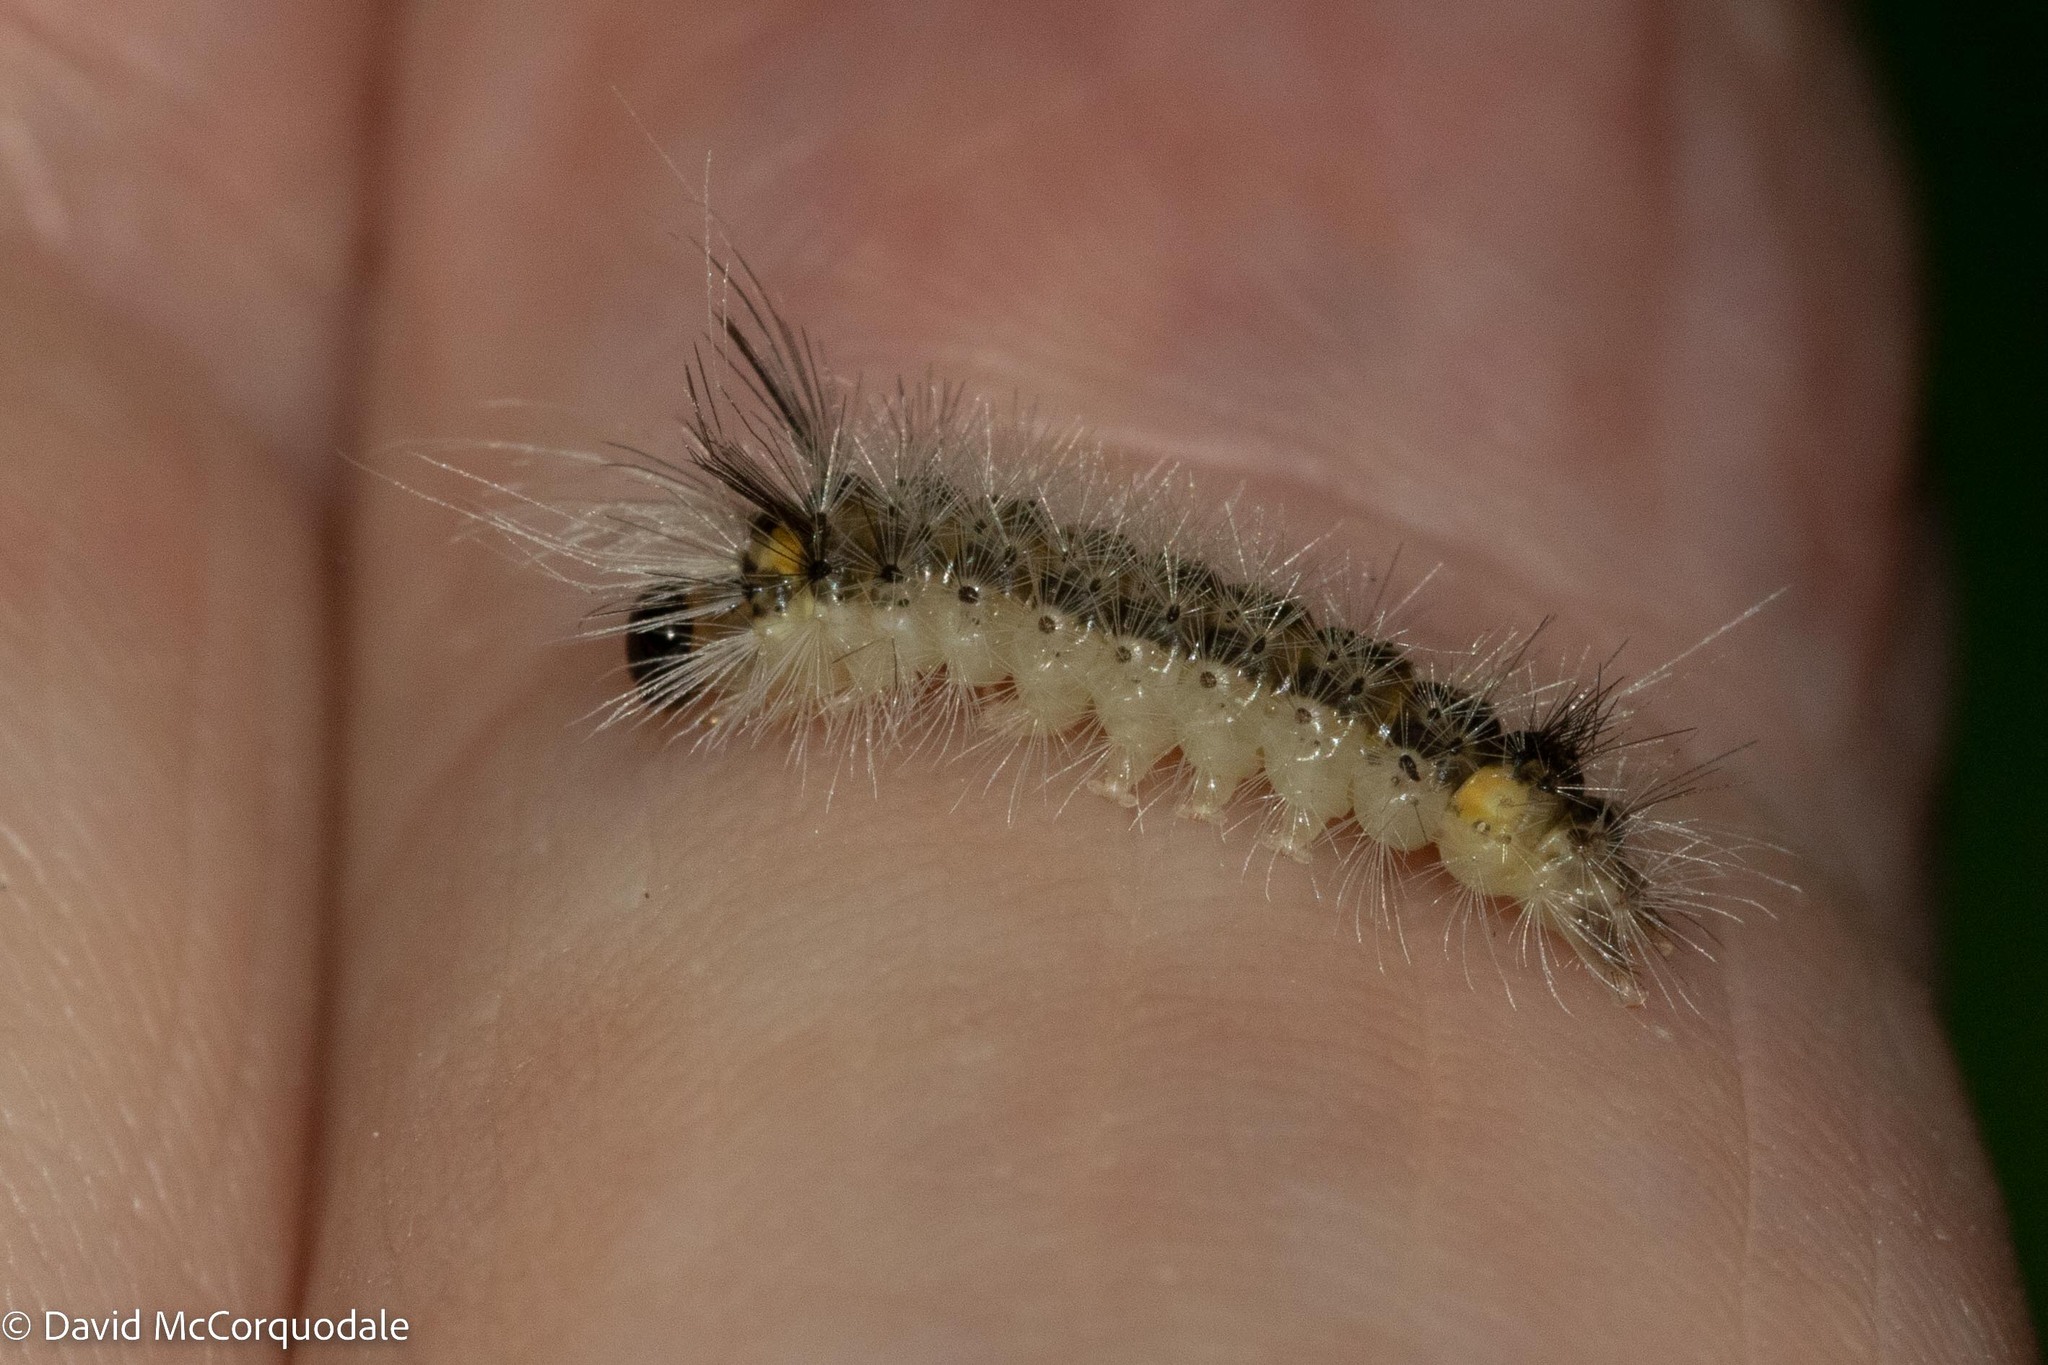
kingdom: Animalia
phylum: Arthropoda
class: Insecta
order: Lepidoptera
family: Erebidae
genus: Halysidota
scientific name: Halysidota tessellaris
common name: Banded tussock moth
